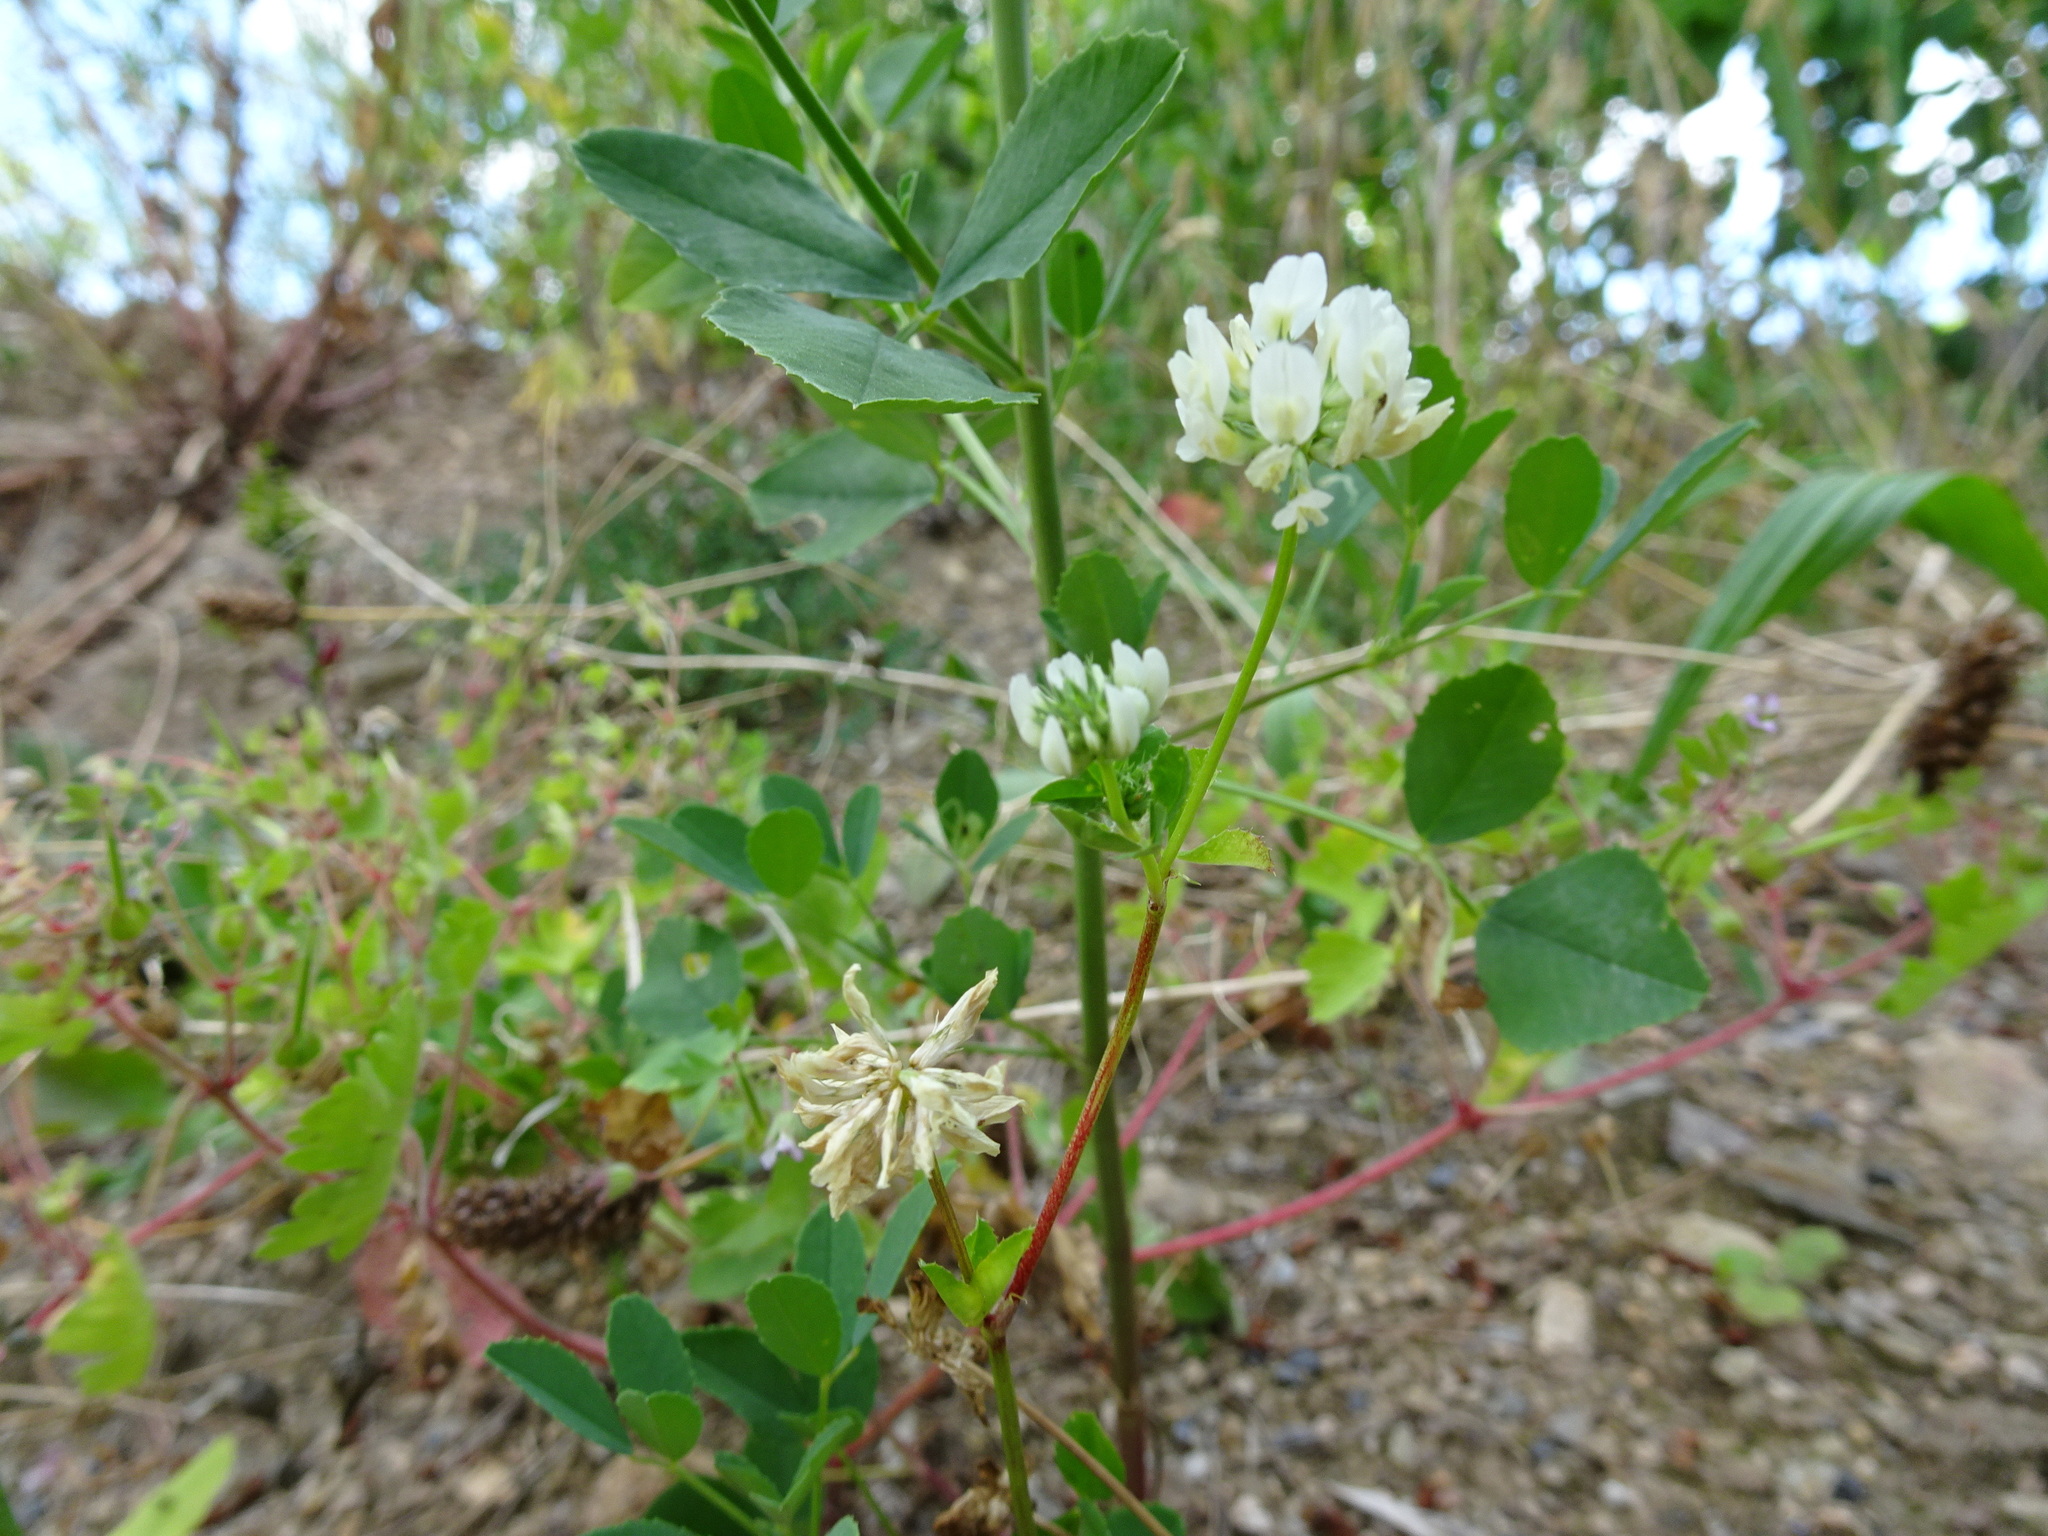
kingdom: Plantae
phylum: Tracheophyta
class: Magnoliopsida
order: Fabales
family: Fabaceae
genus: Trifolium
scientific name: Trifolium nigrescens
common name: Small white clover
